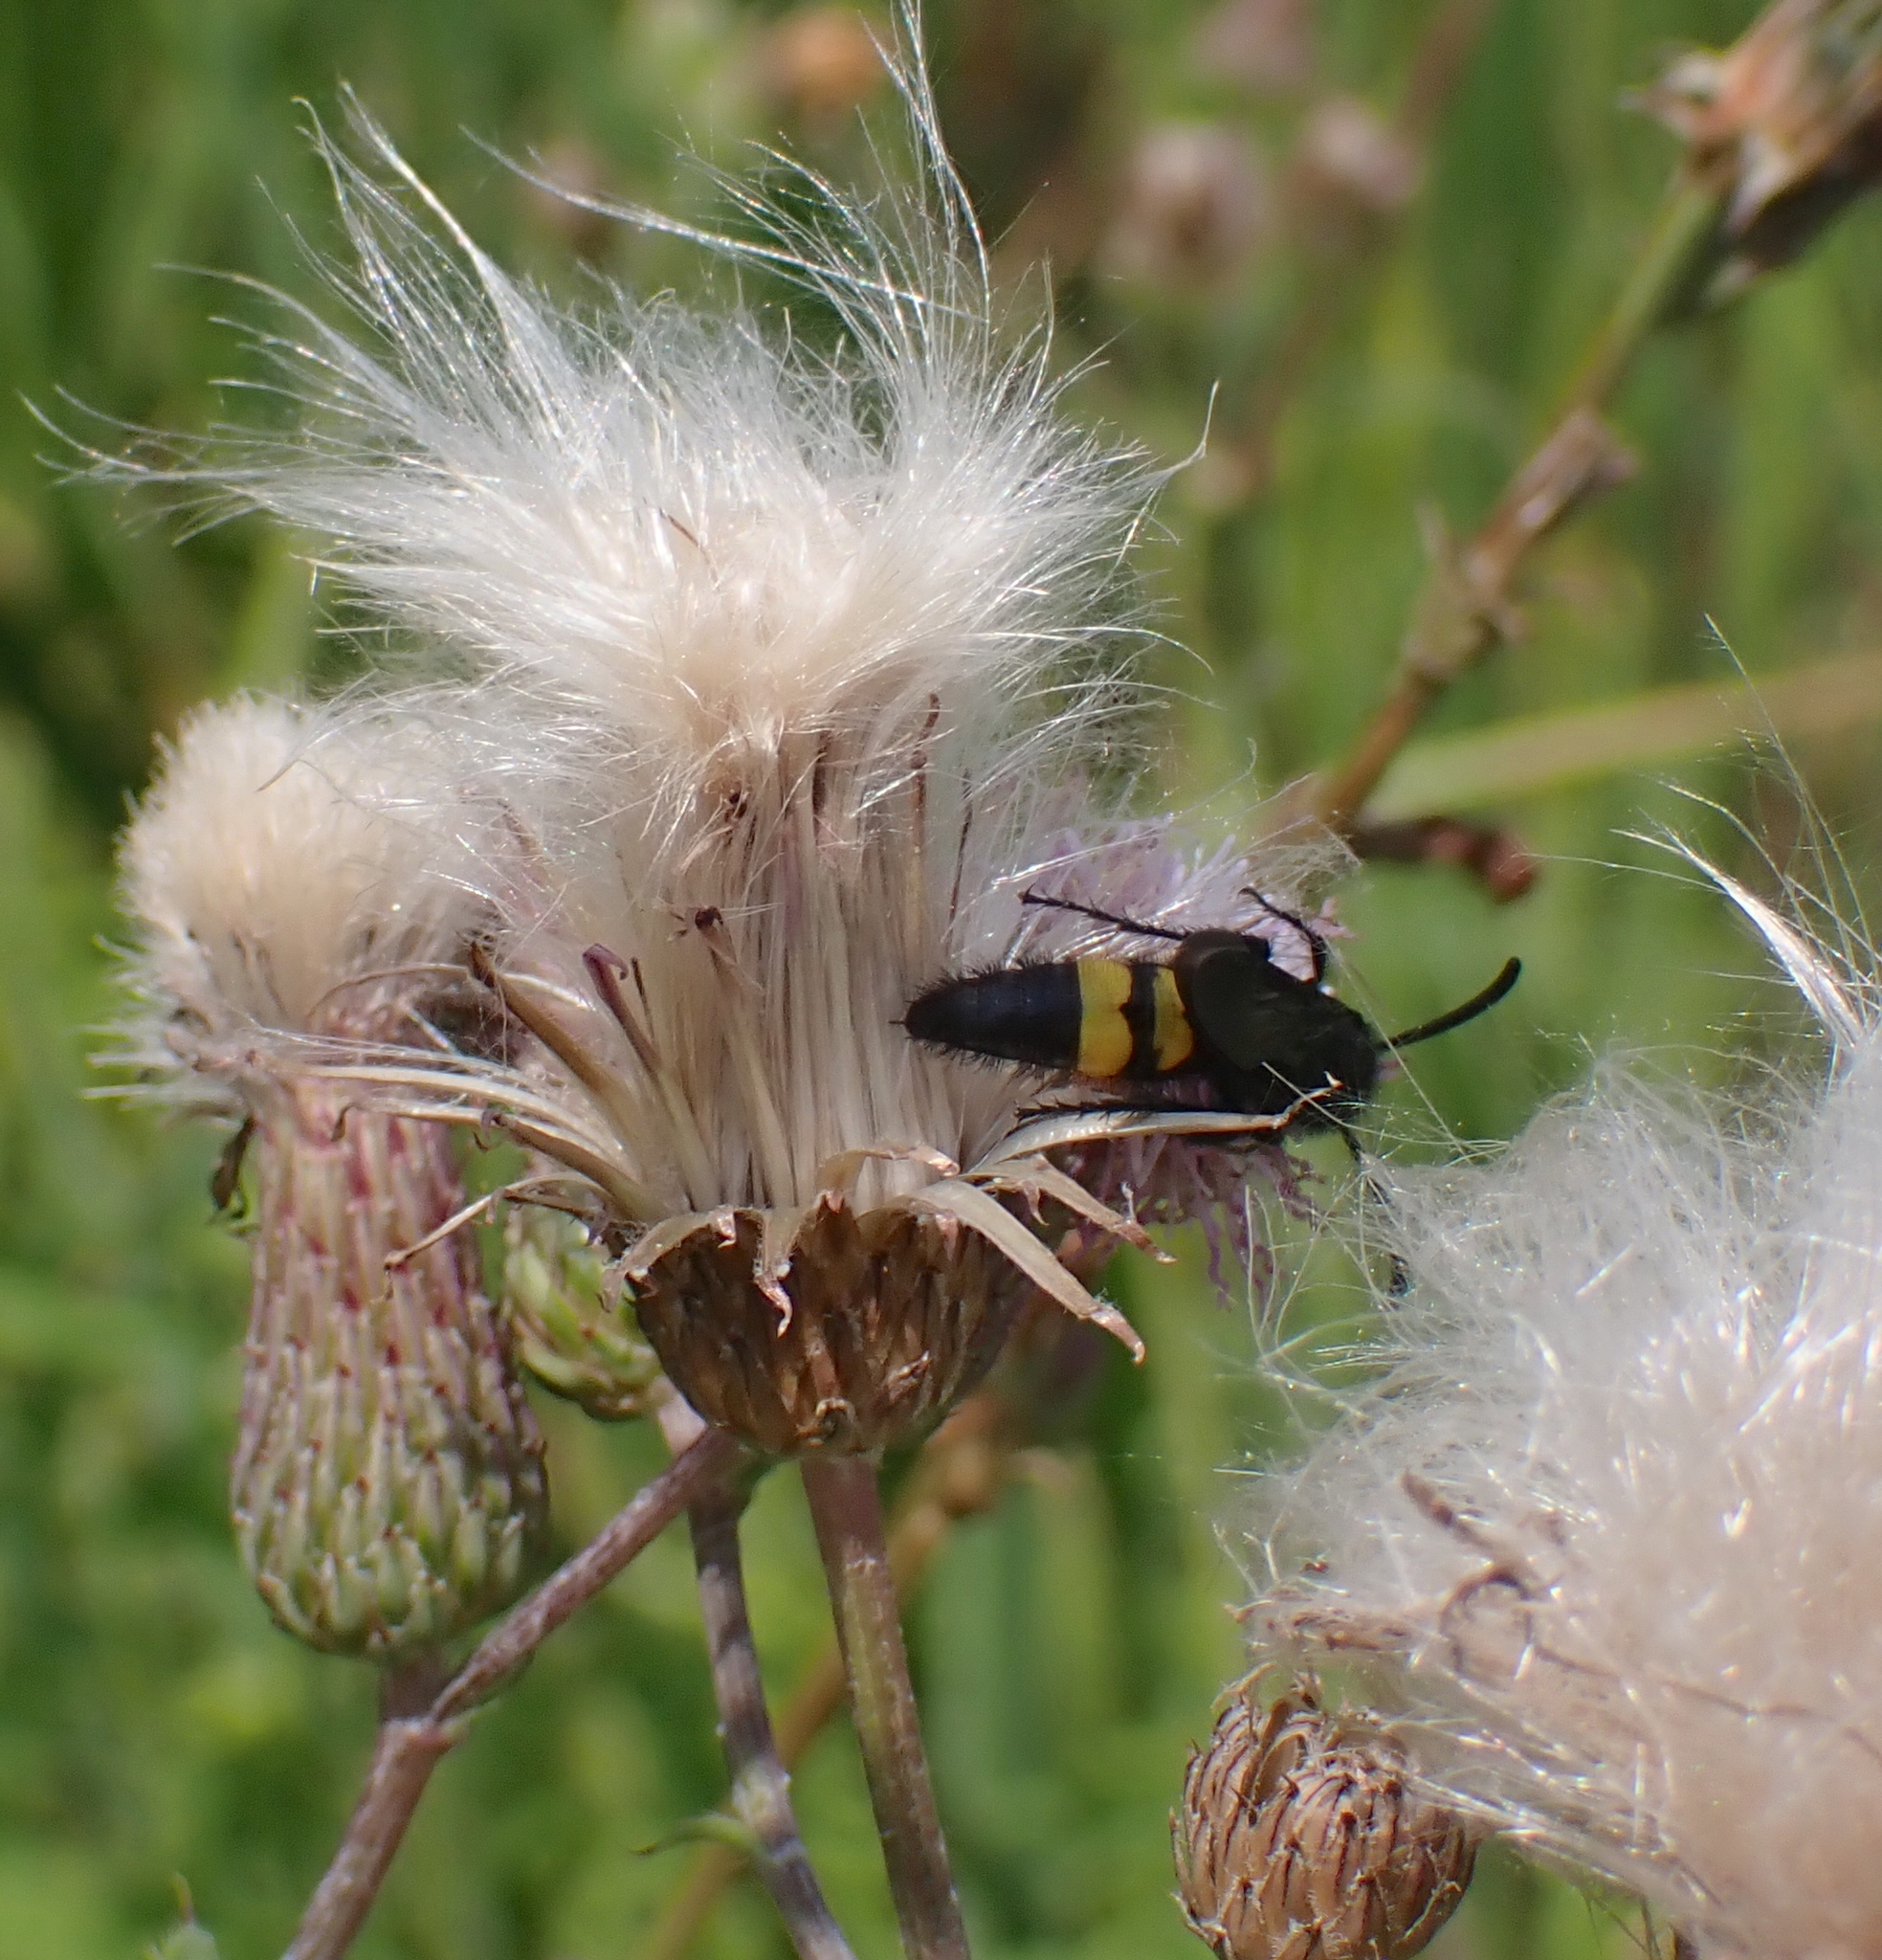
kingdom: Animalia
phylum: Arthropoda
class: Insecta
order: Hymenoptera
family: Scoliidae
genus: Scolia
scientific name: Scolia hirta
